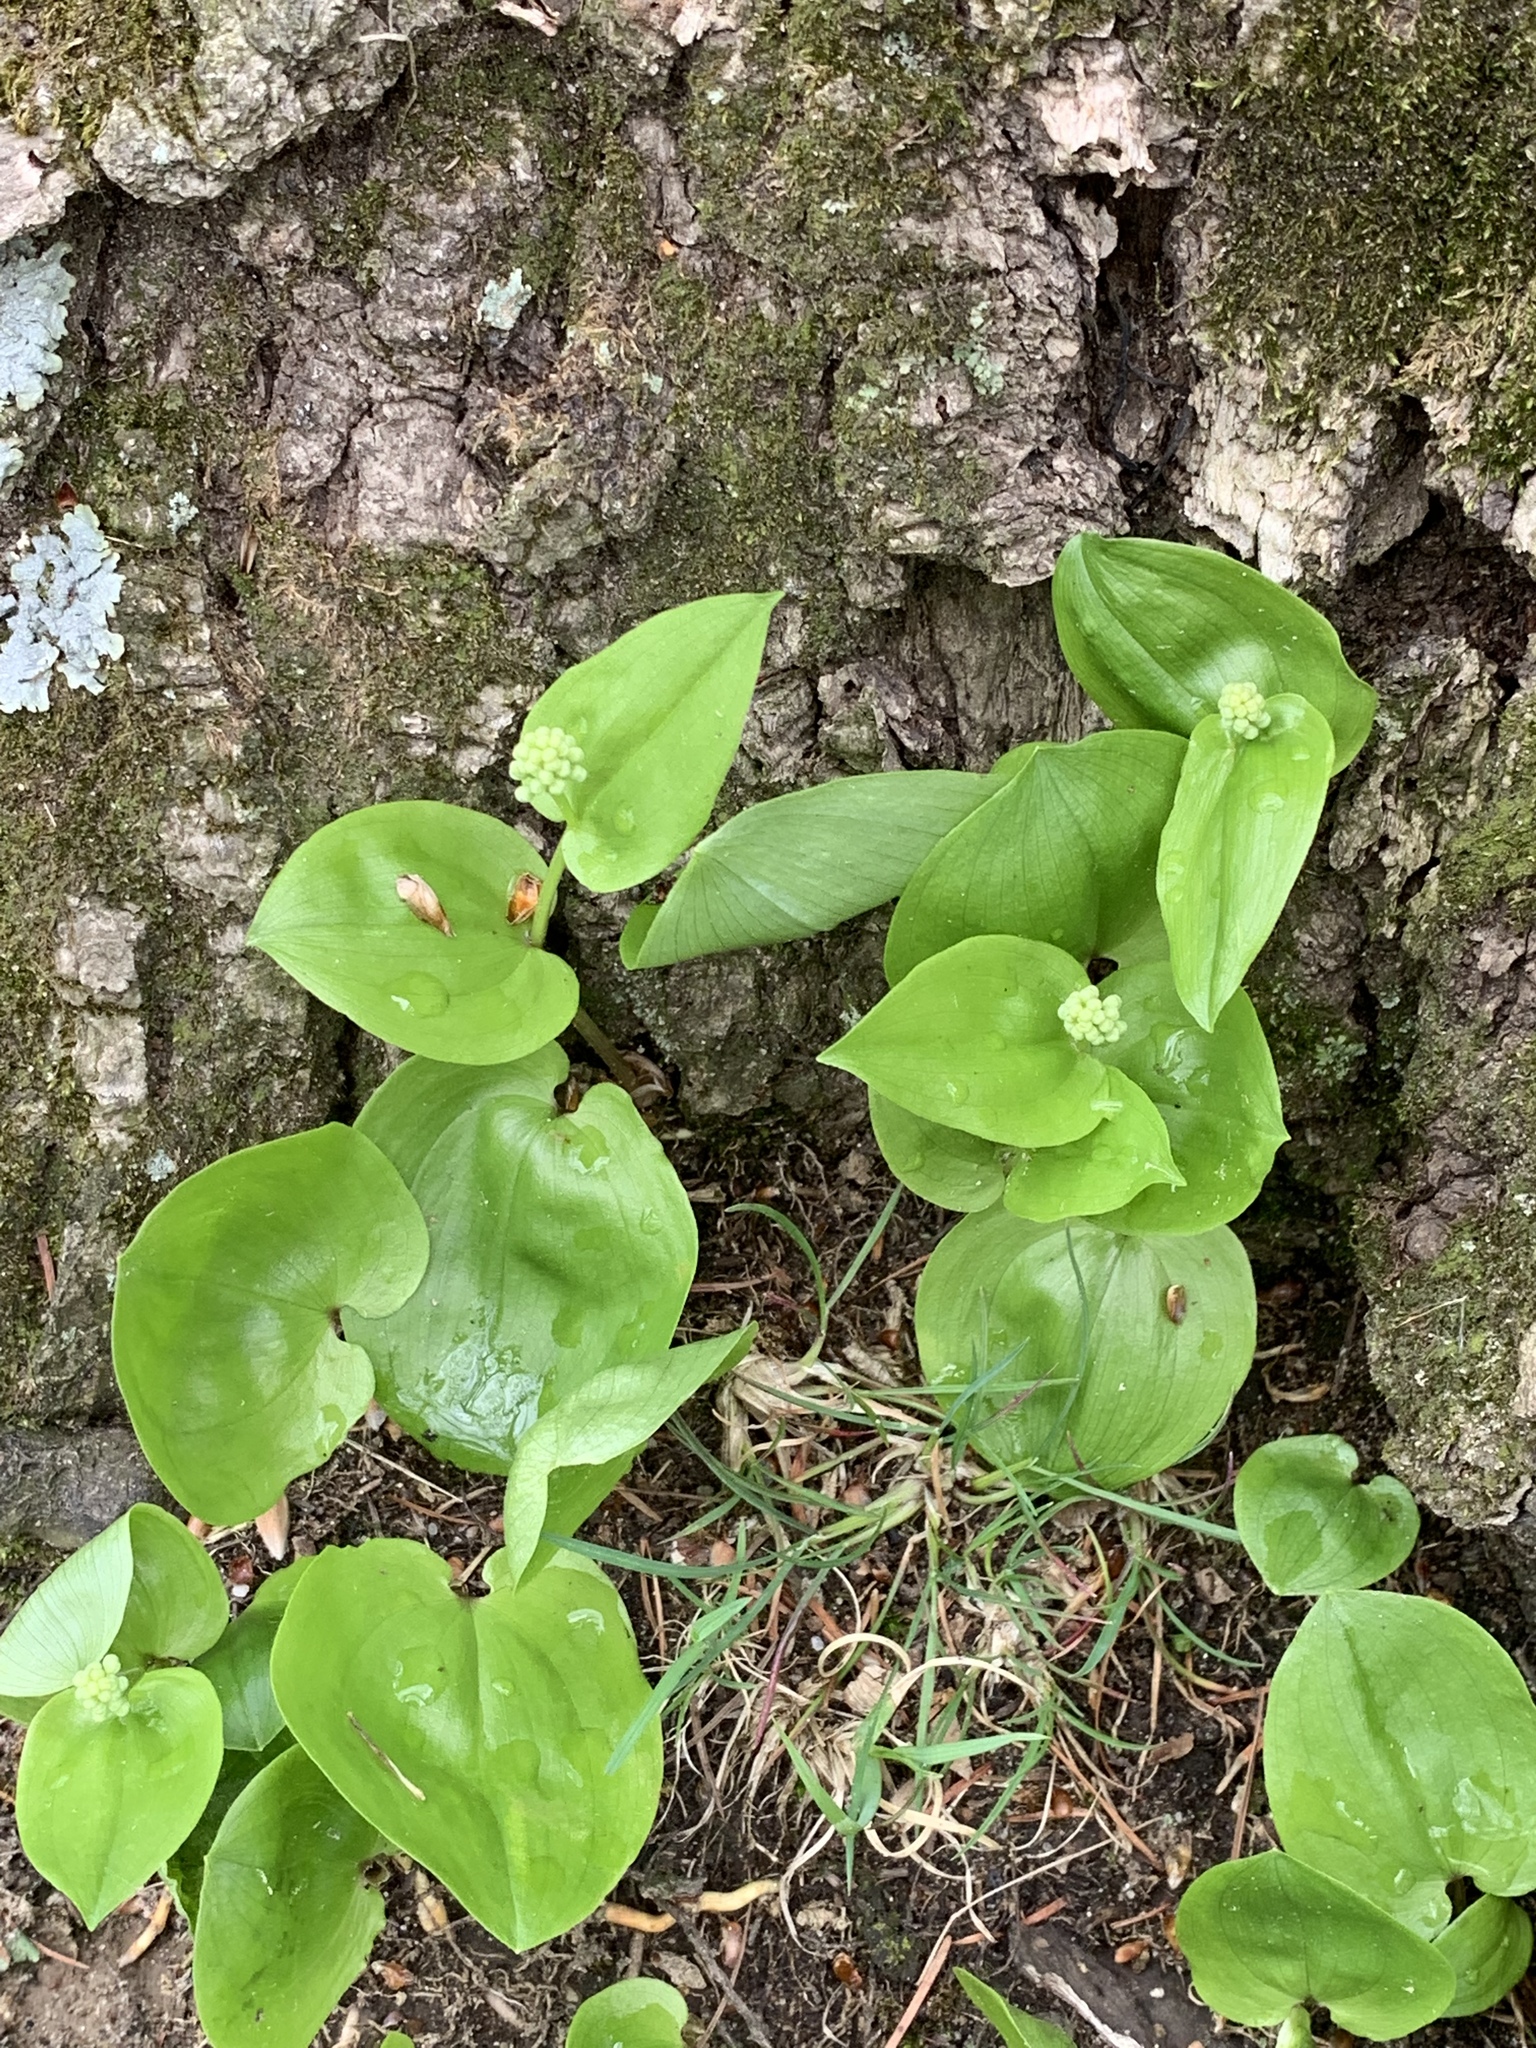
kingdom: Plantae
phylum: Tracheophyta
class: Liliopsida
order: Asparagales
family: Asparagaceae
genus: Maianthemum
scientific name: Maianthemum canadense
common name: False lily-of-the-valley
